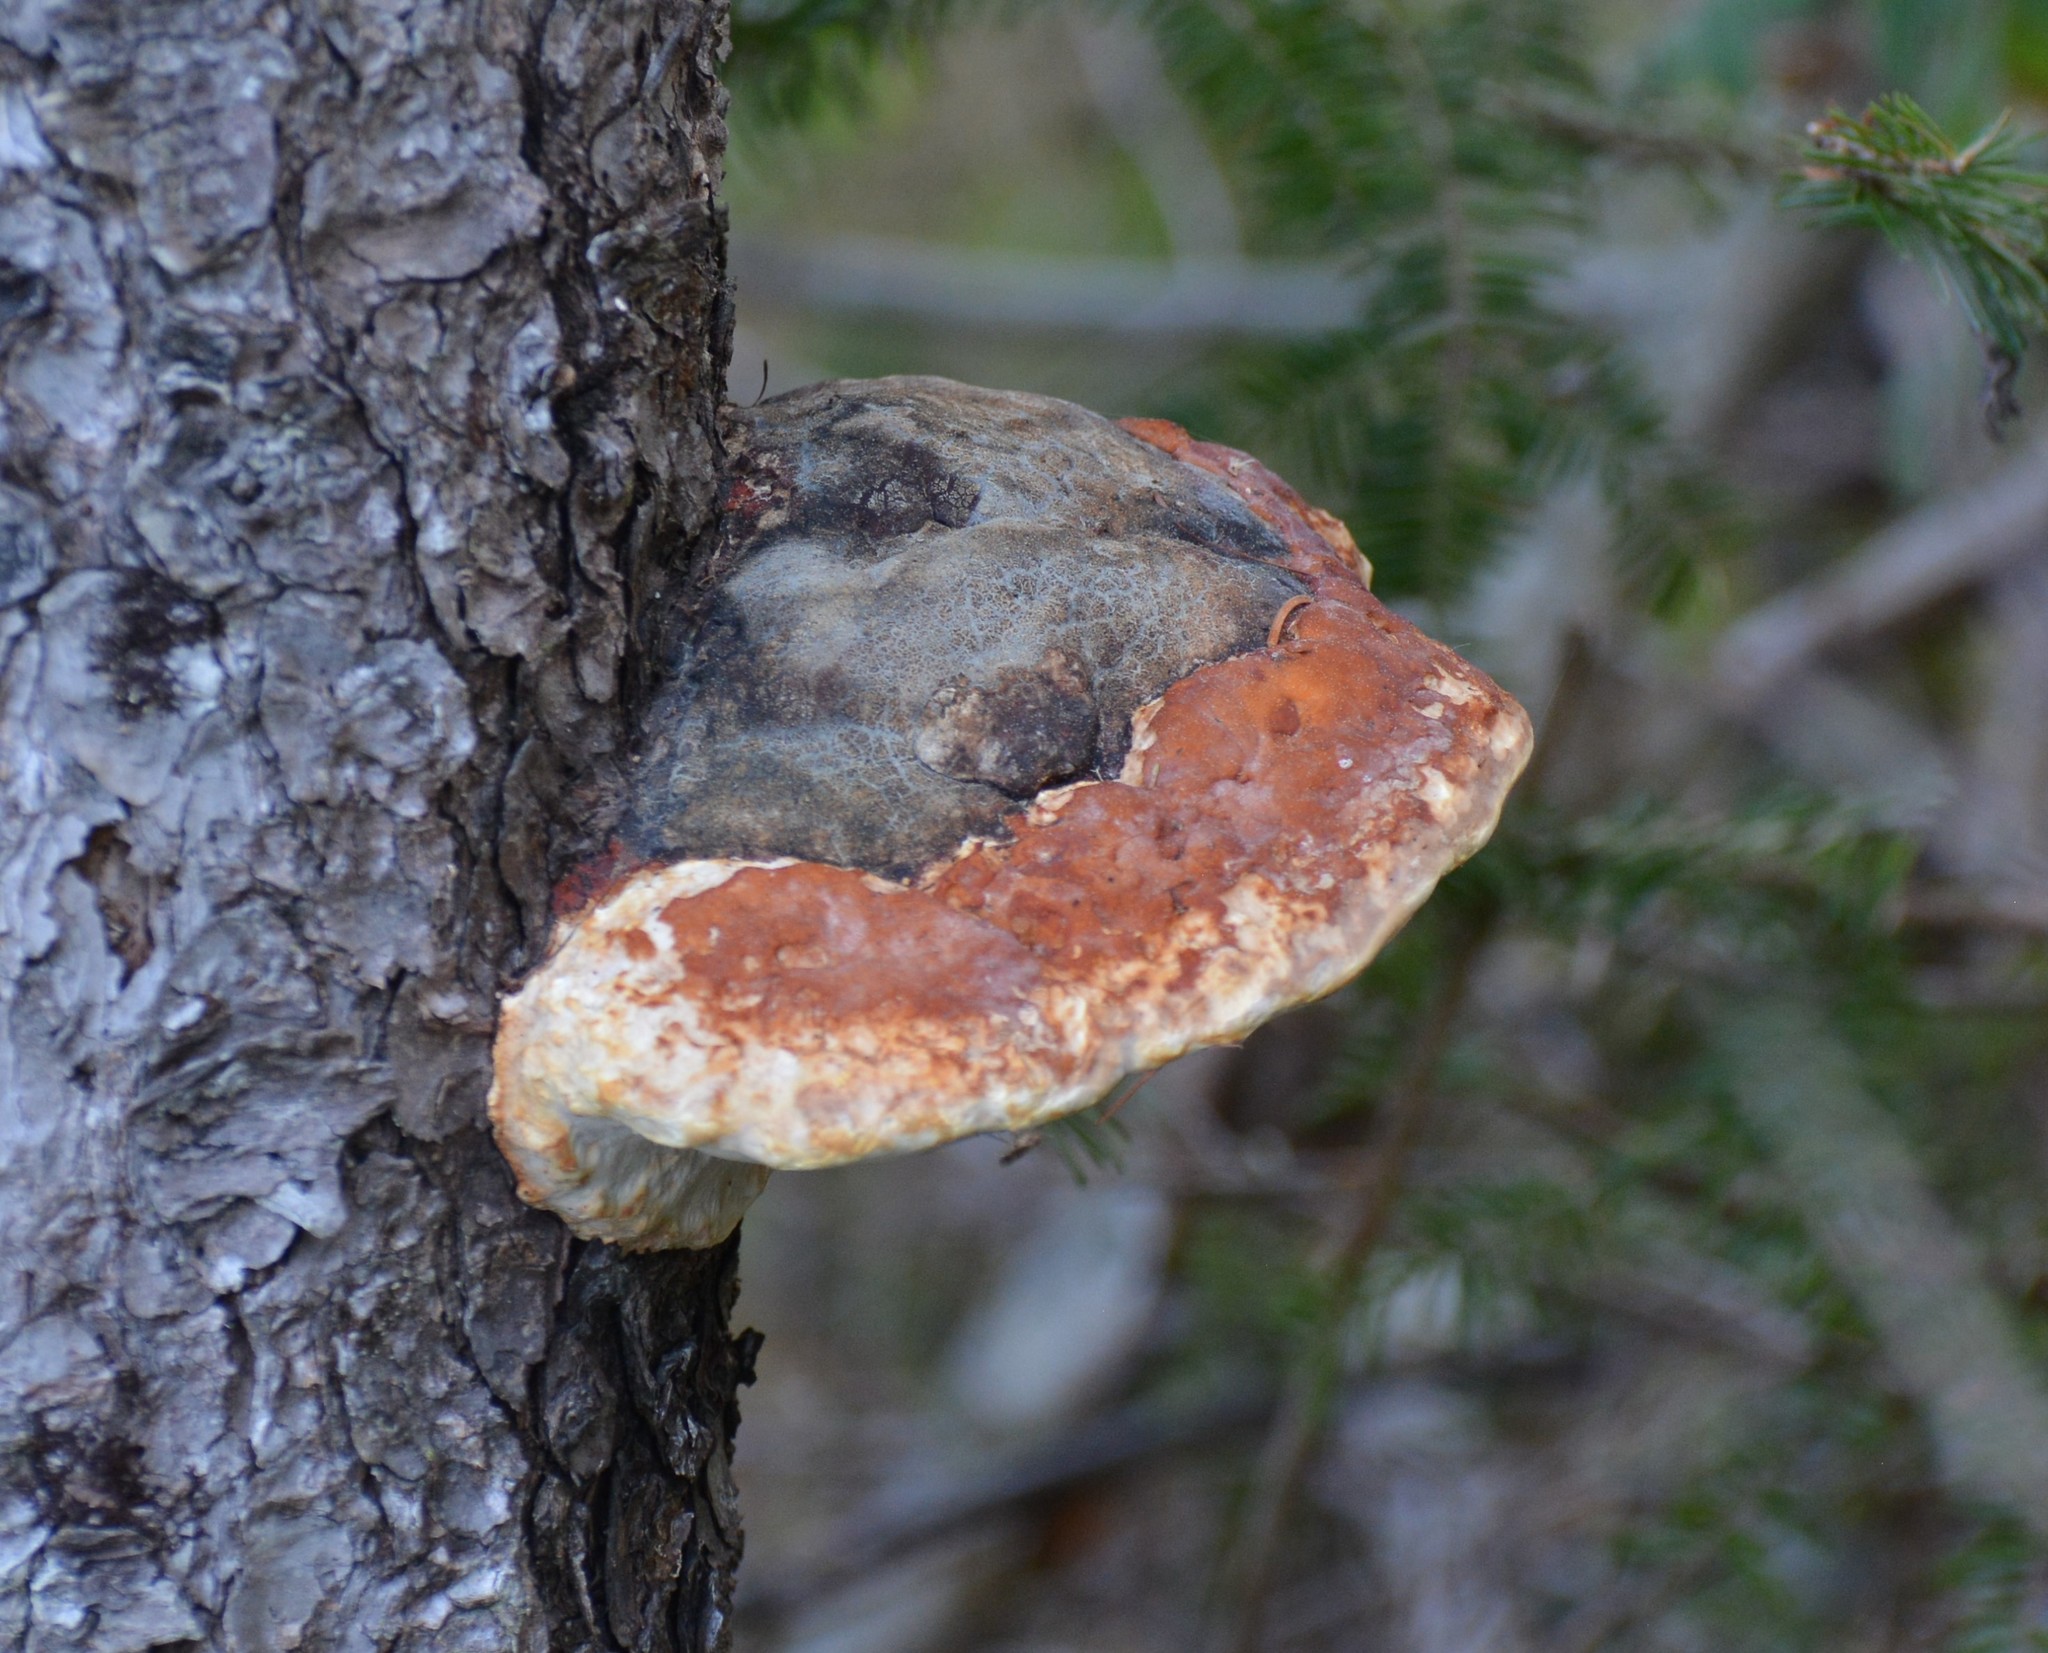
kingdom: Fungi
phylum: Basidiomycota
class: Agaricomycetes
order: Polyporales
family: Fomitopsidaceae
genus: Fomitopsis
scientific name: Fomitopsis mounceae
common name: Northern red belt
